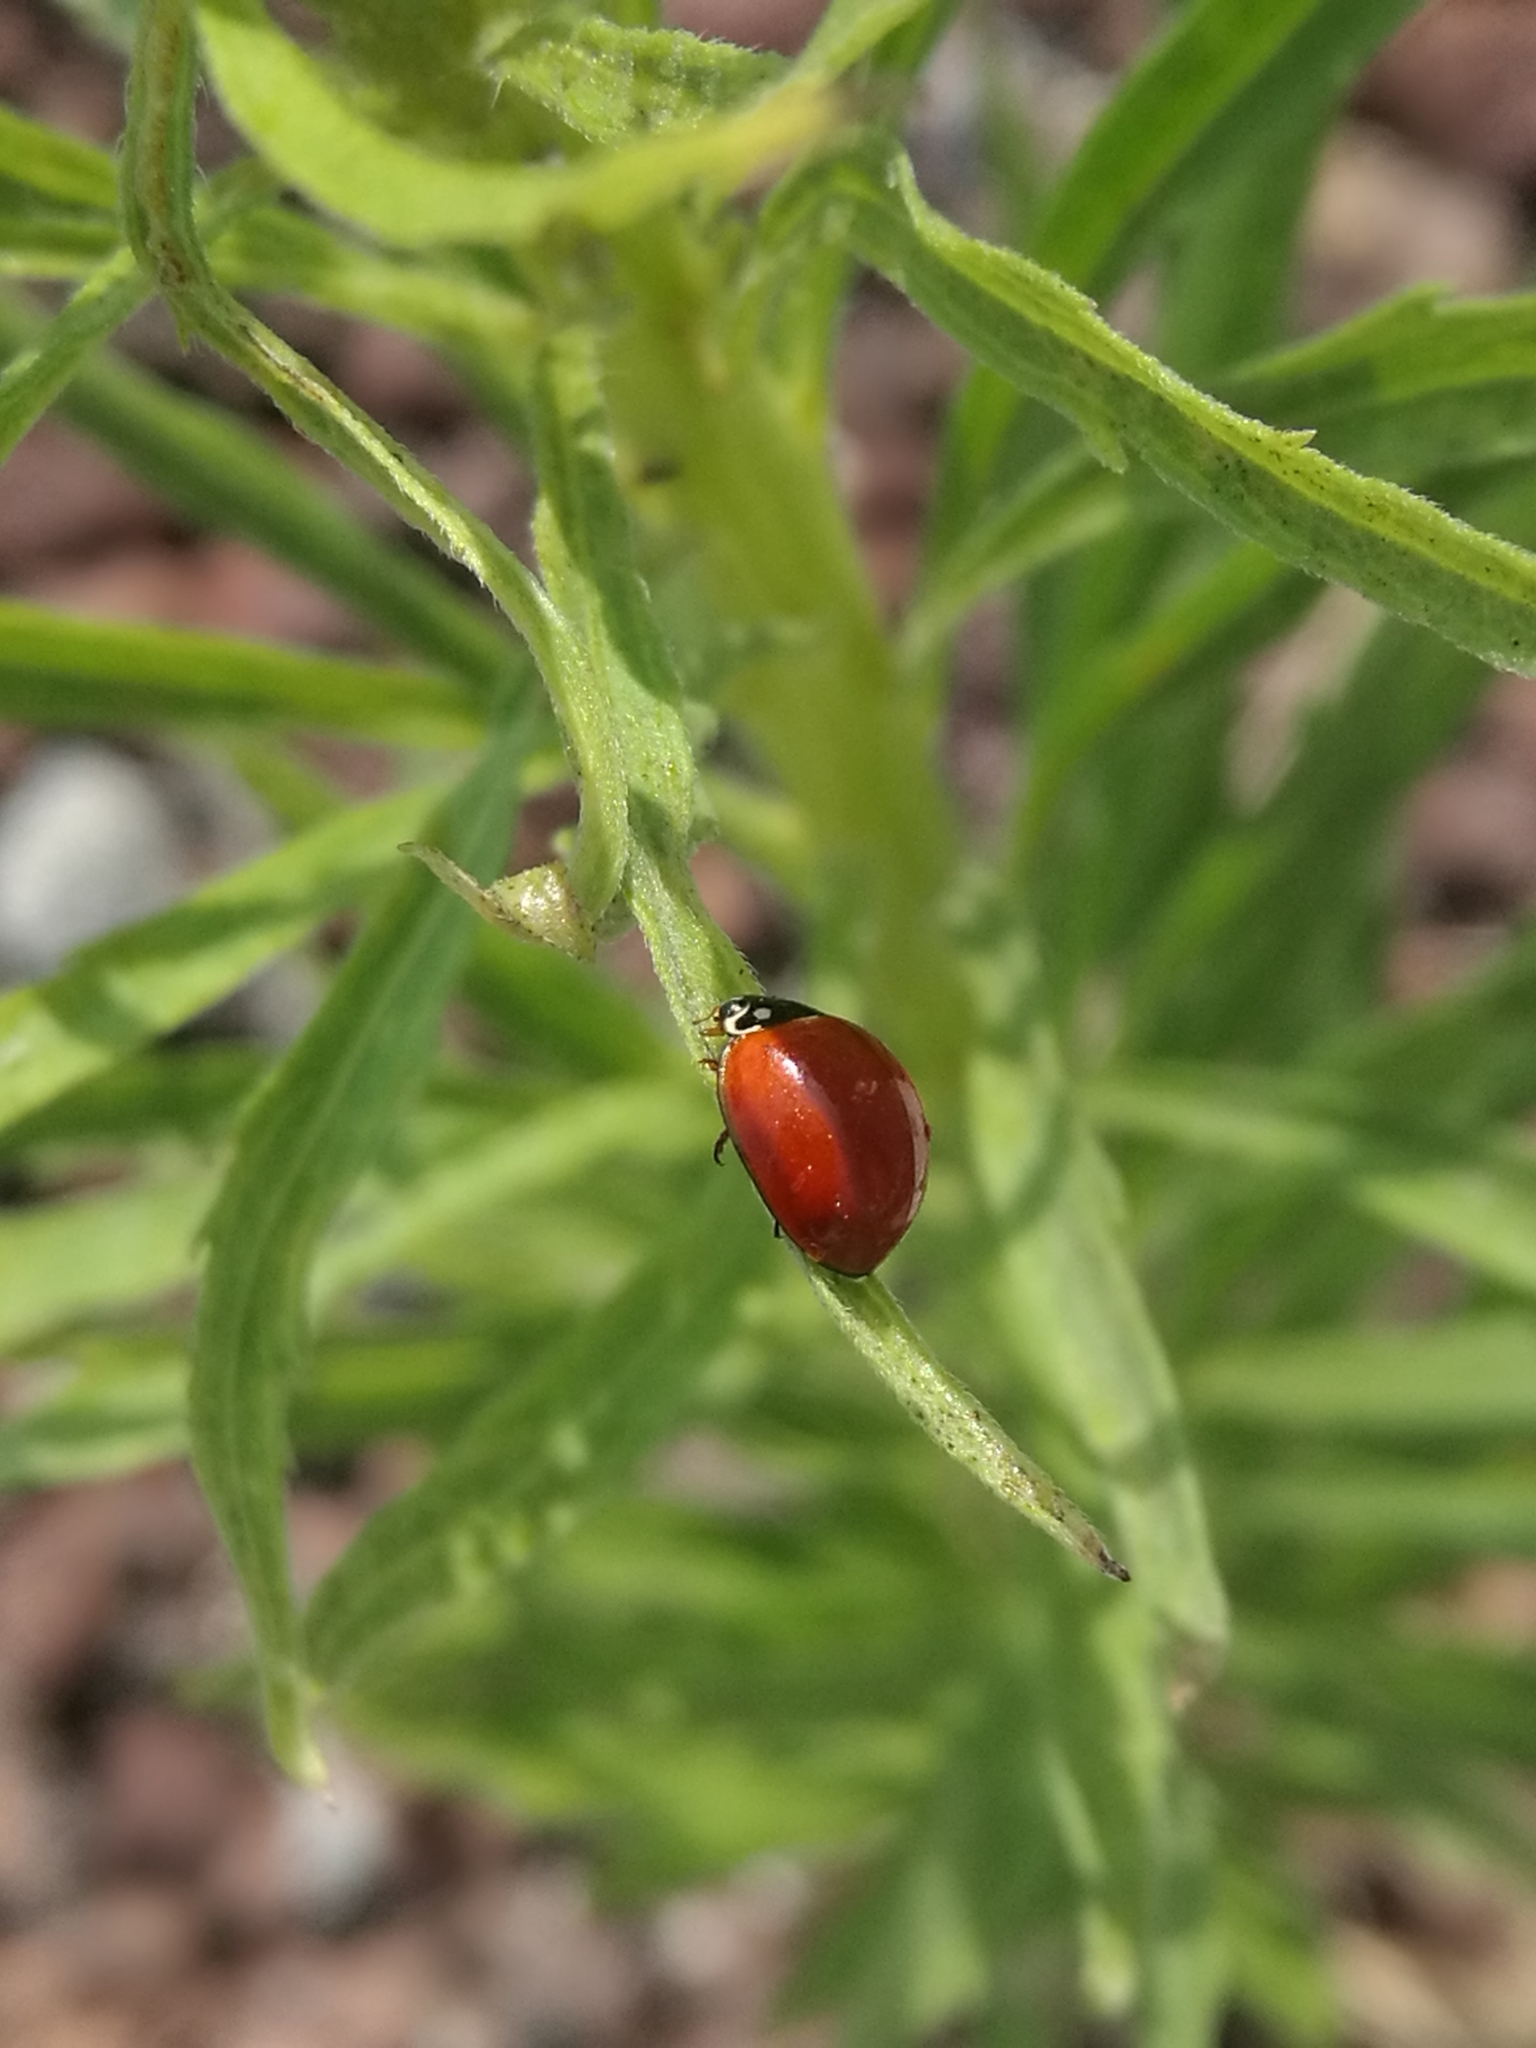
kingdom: Animalia
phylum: Arthropoda
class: Insecta
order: Coleoptera
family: Coccinellidae
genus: Cycloneda
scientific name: Cycloneda sanguinea
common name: Ladybird beetle
